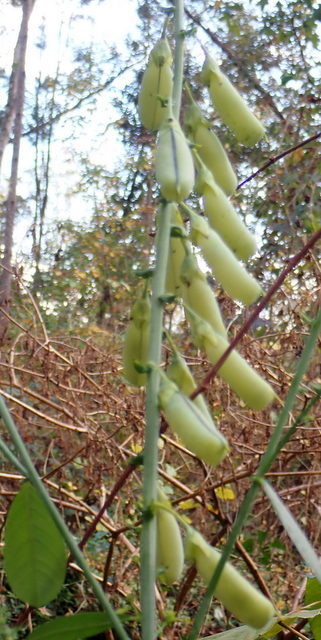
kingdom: Plantae
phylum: Tracheophyta
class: Magnoliopsida
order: Fabales
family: Fabaceae
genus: Crotalaria
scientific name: Crotalaria spectabilis
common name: Showy rattlebox
